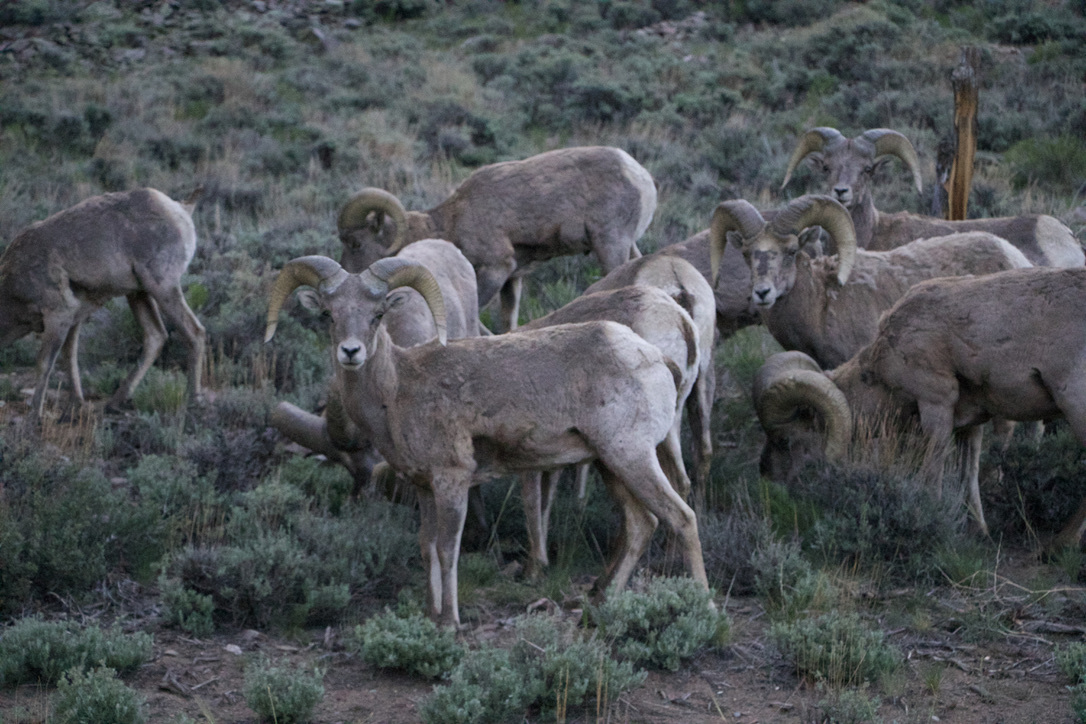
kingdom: Animalia
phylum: Chordata
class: Mammalia
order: Artiodactyla
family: Bovidae
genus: Ovis
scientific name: Ovis canadensis
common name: Bighorn sheep
